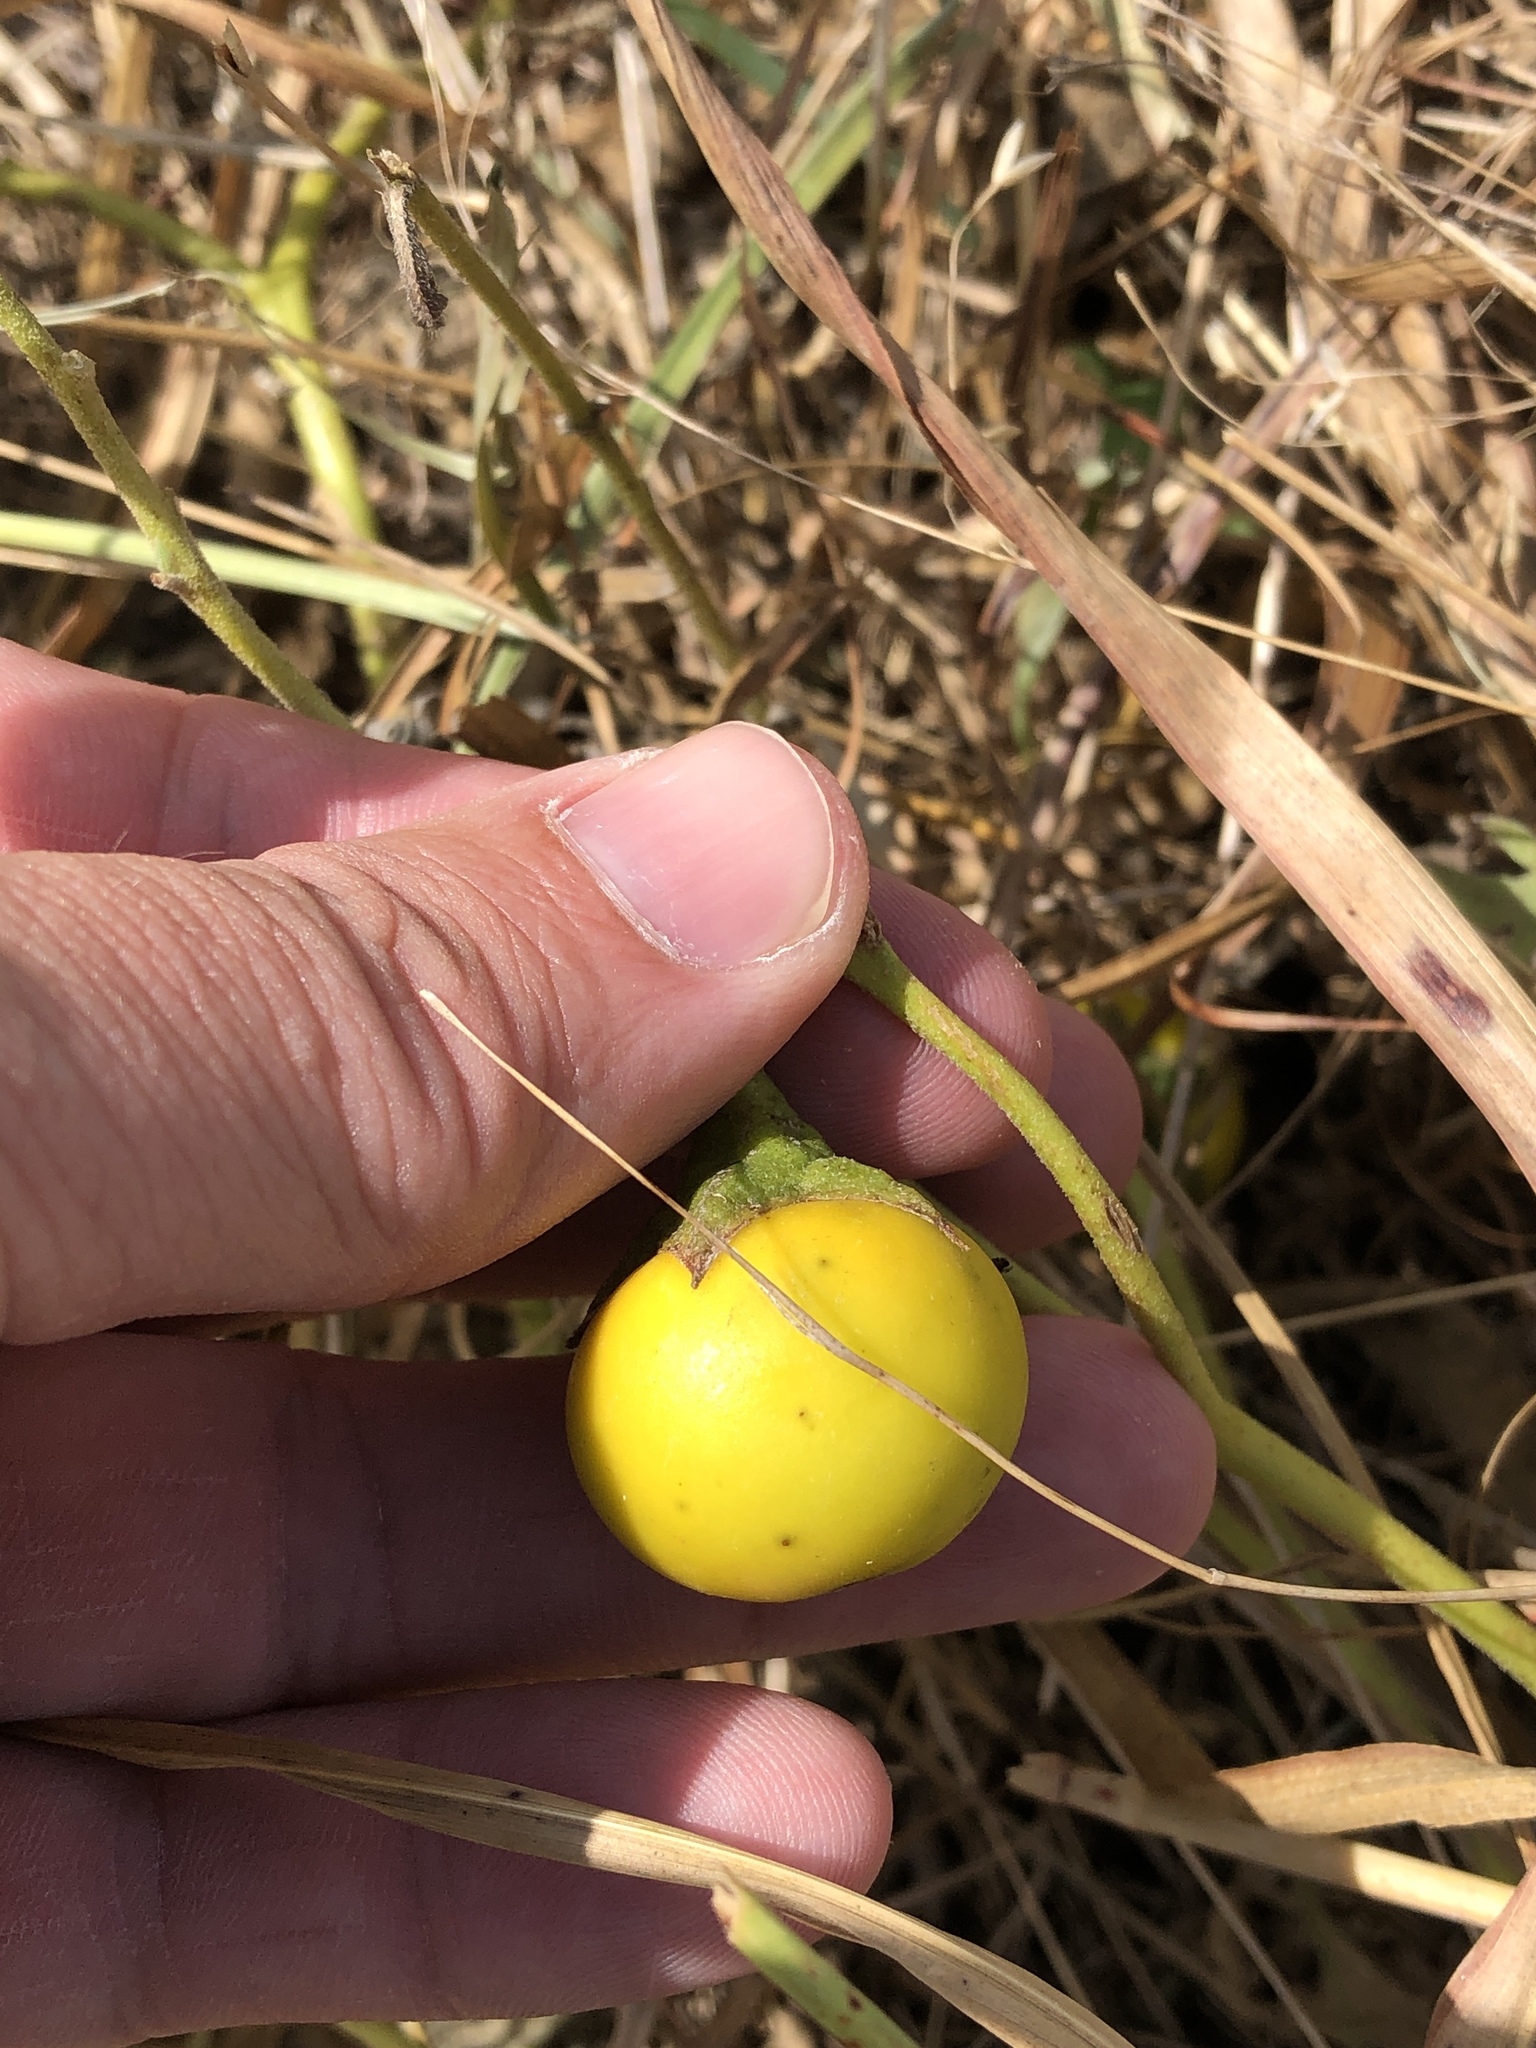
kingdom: Plantae
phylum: Tracheophyta
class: Magnoliopsida
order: Solanales
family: Solanaceae
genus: Solanum
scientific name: Solanum dimidiatum
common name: Carolina horse-nettle
